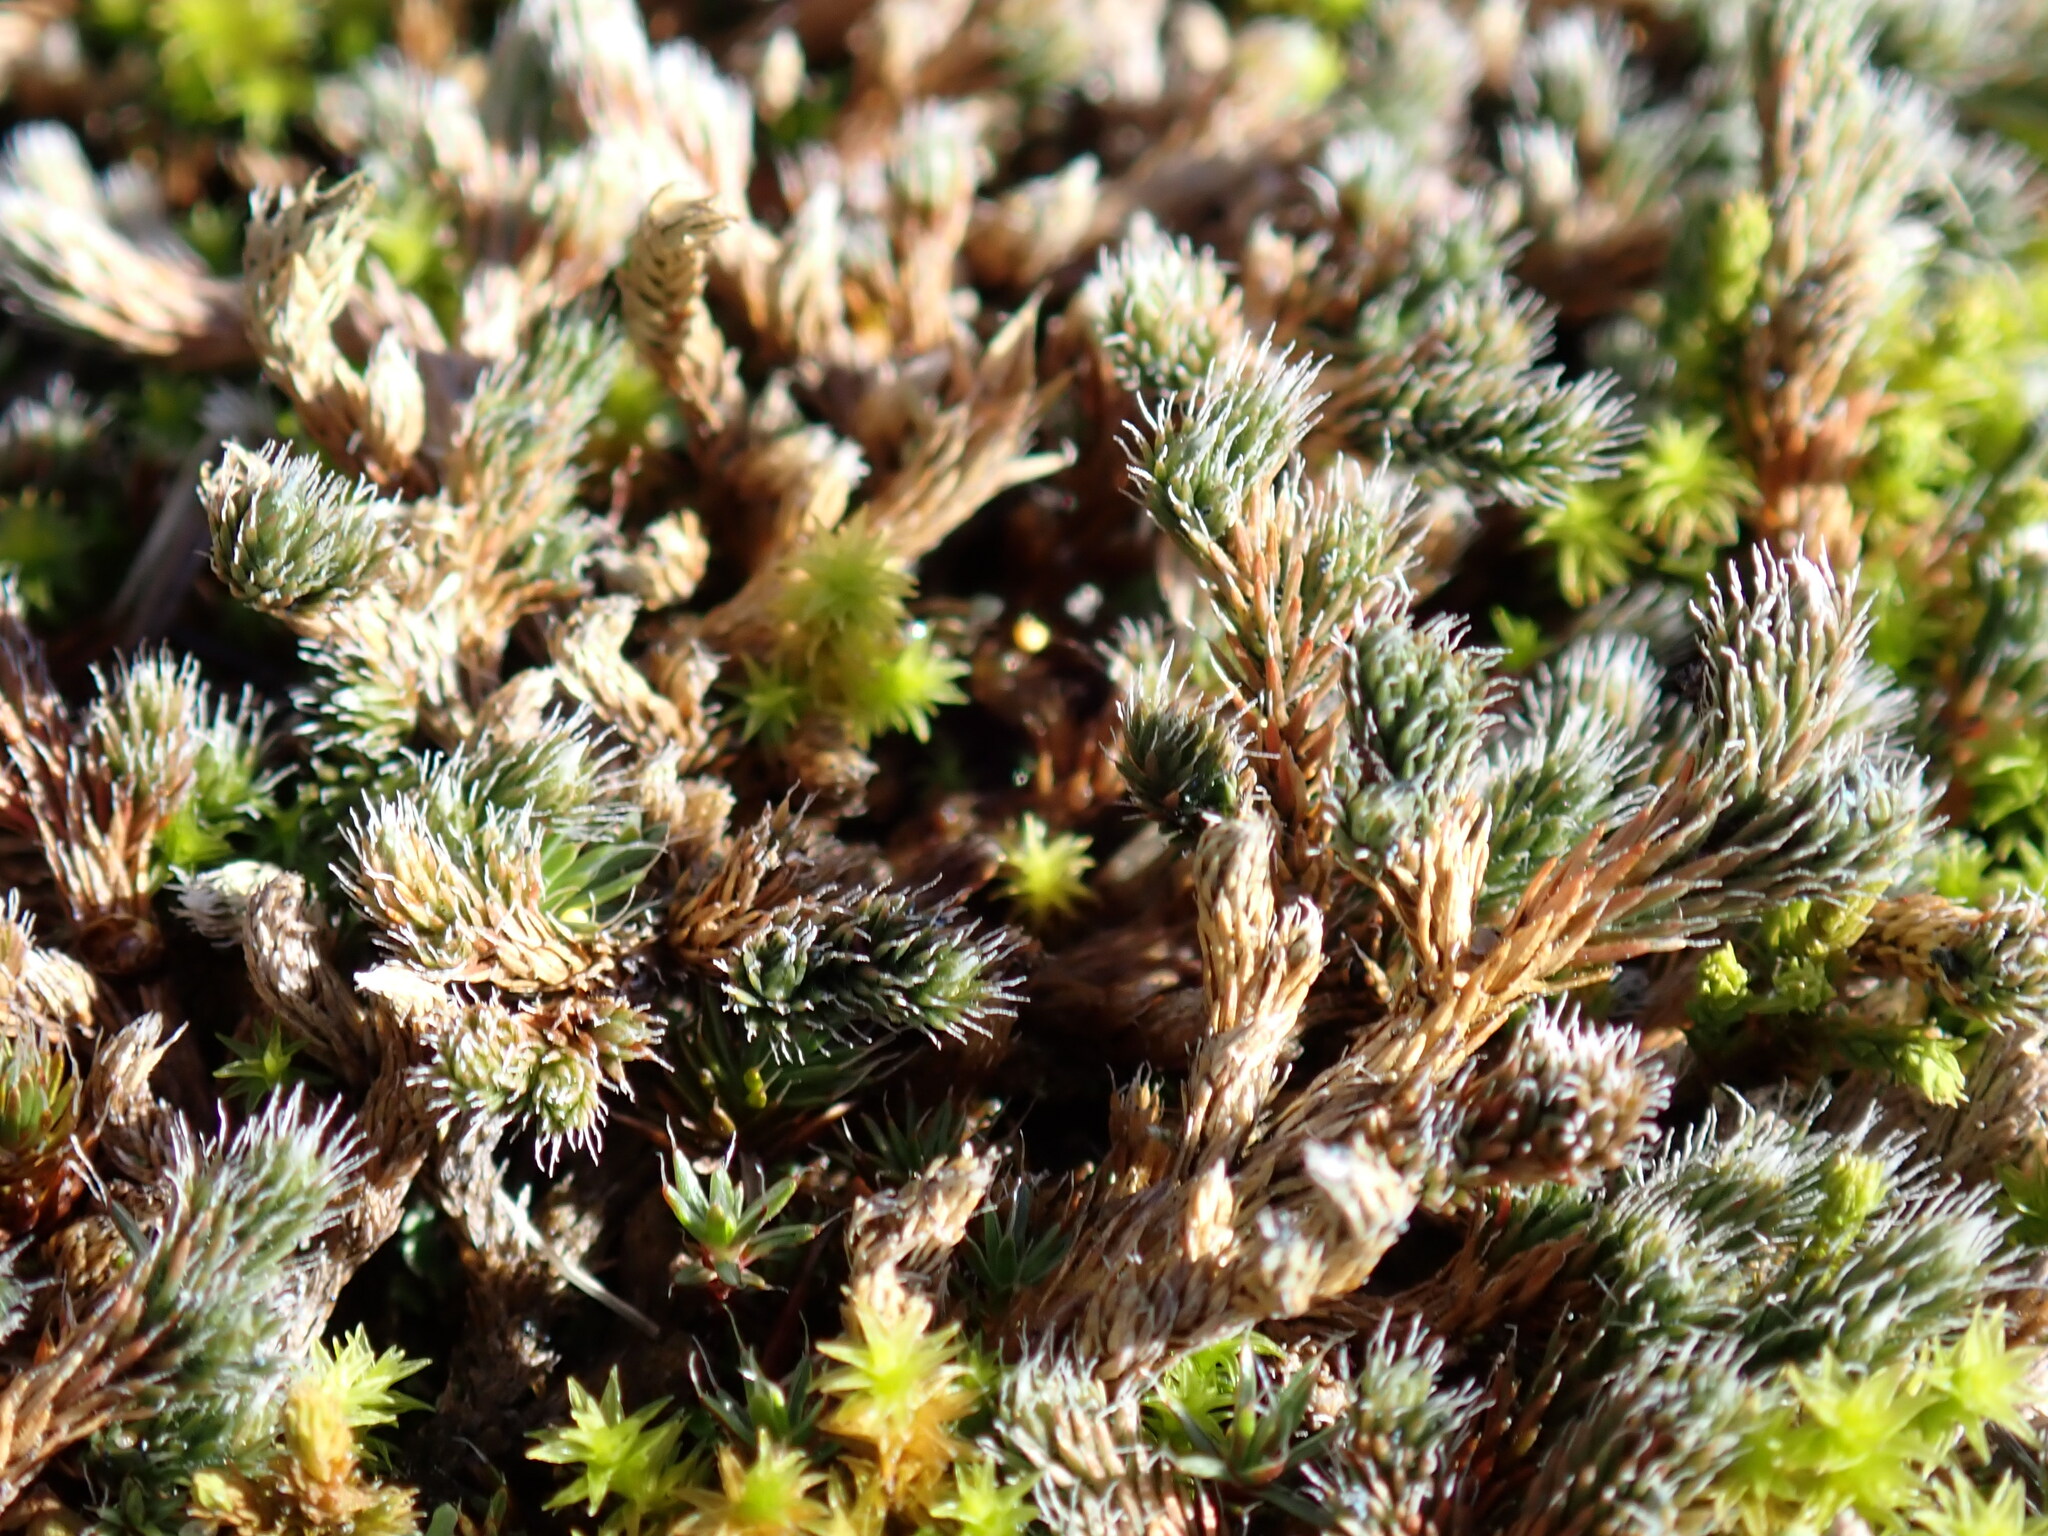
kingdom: Plantae
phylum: Tracheophyta
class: Lycopodiopsida
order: Selaginellales
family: Selaginellaceae
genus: Selaginella
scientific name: Selaginella rupestris
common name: Dwarf spikemoss
